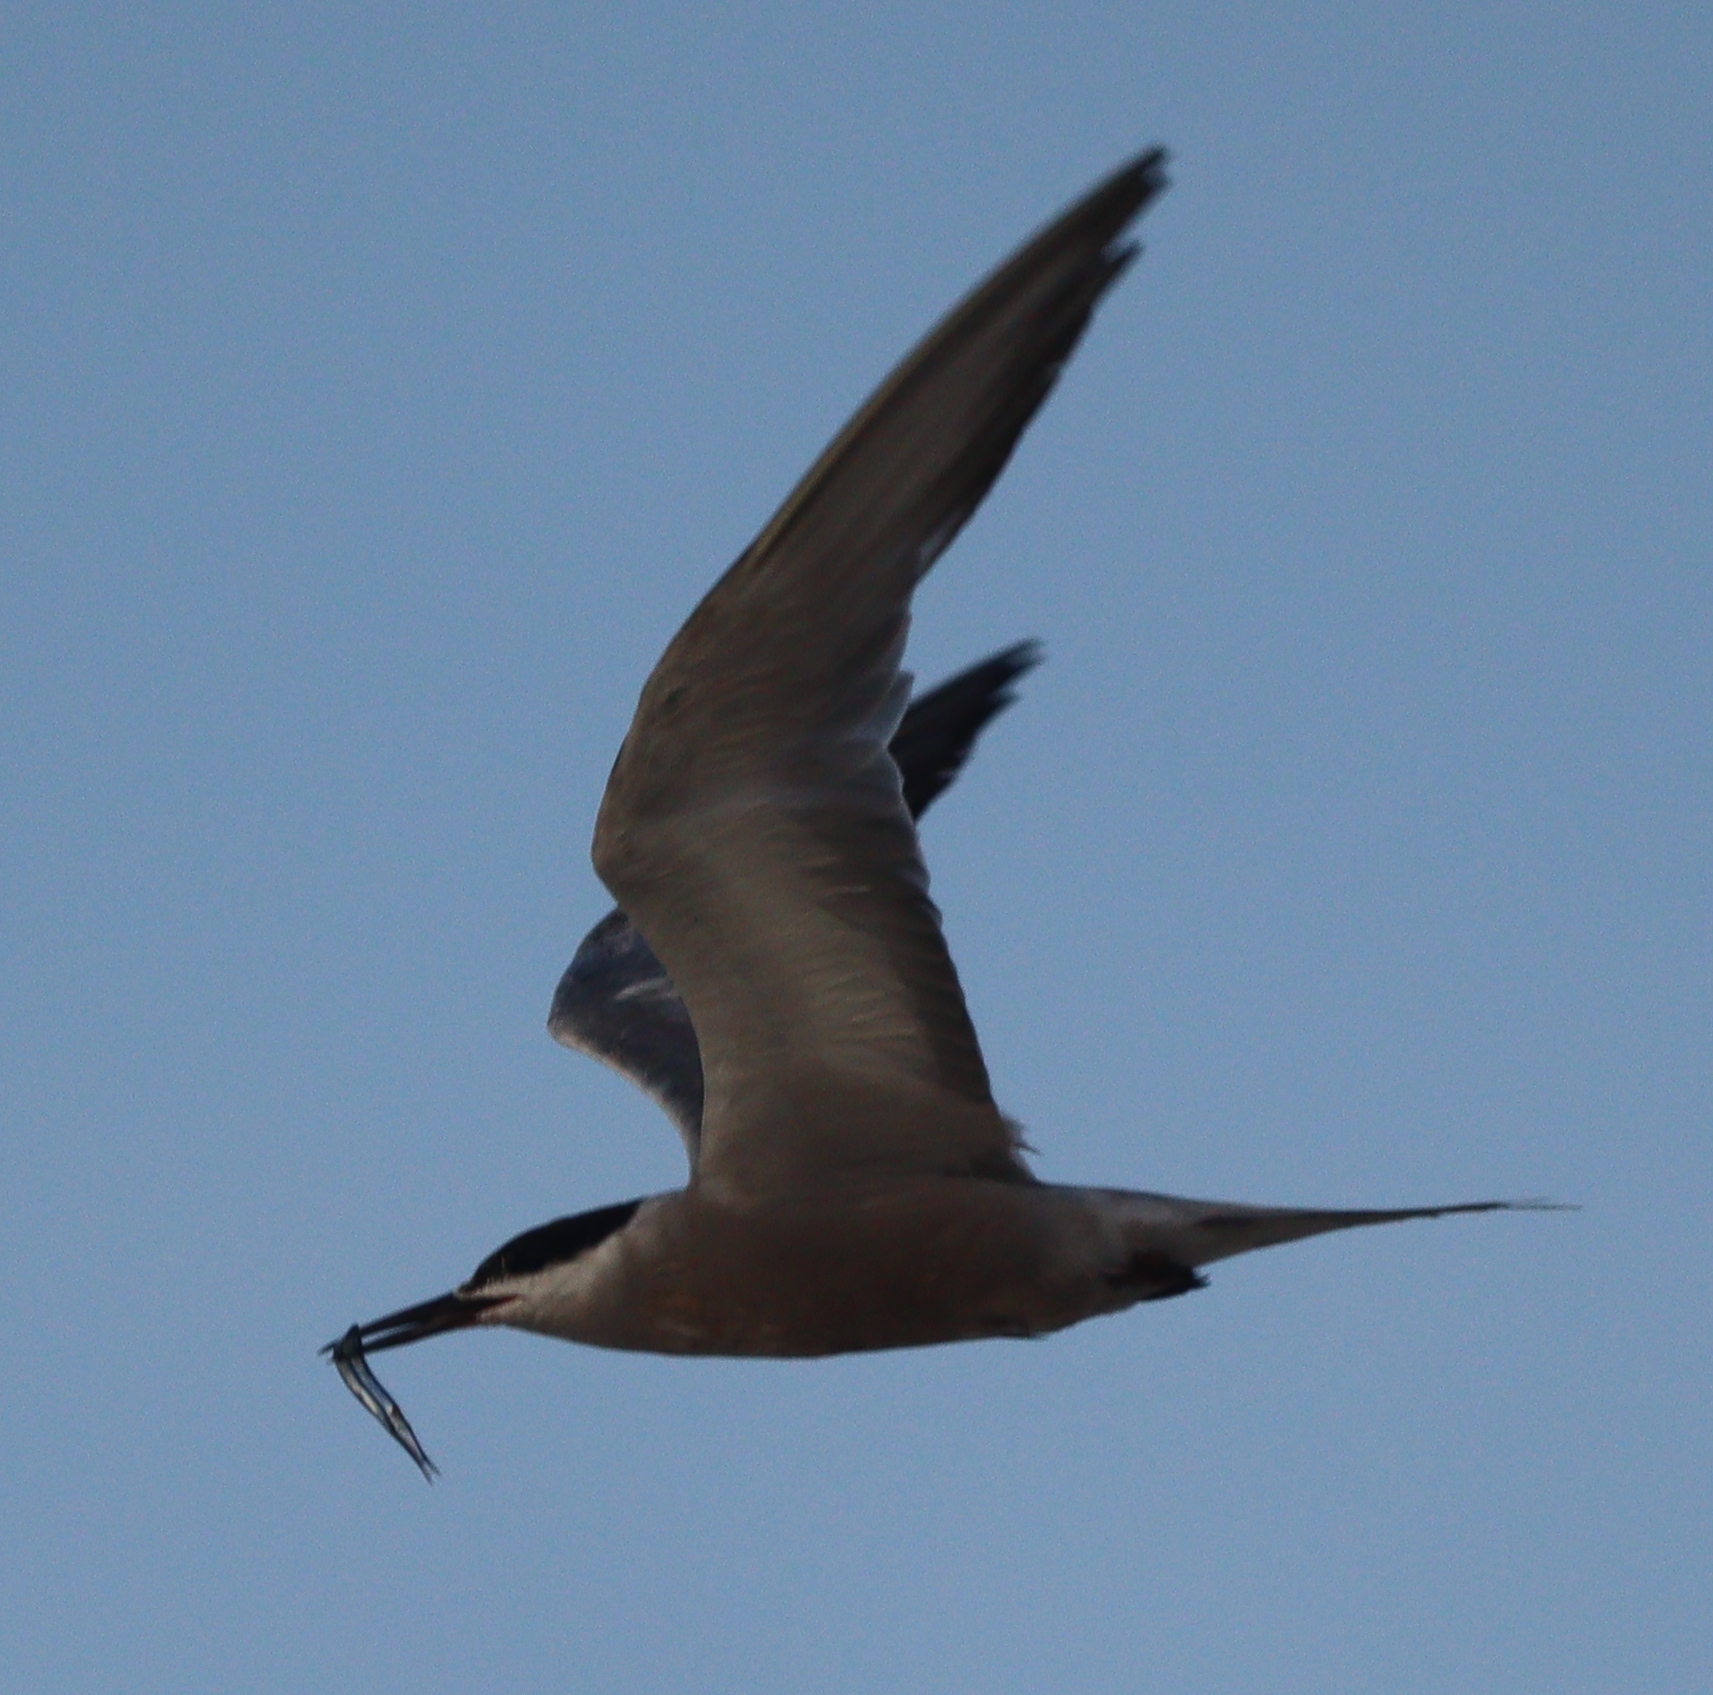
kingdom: Animalia
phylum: Chordata
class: Aves
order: Charadriiformes
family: Laridae
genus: Sterna
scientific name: Sterna repressa
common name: White-cheeked tern
